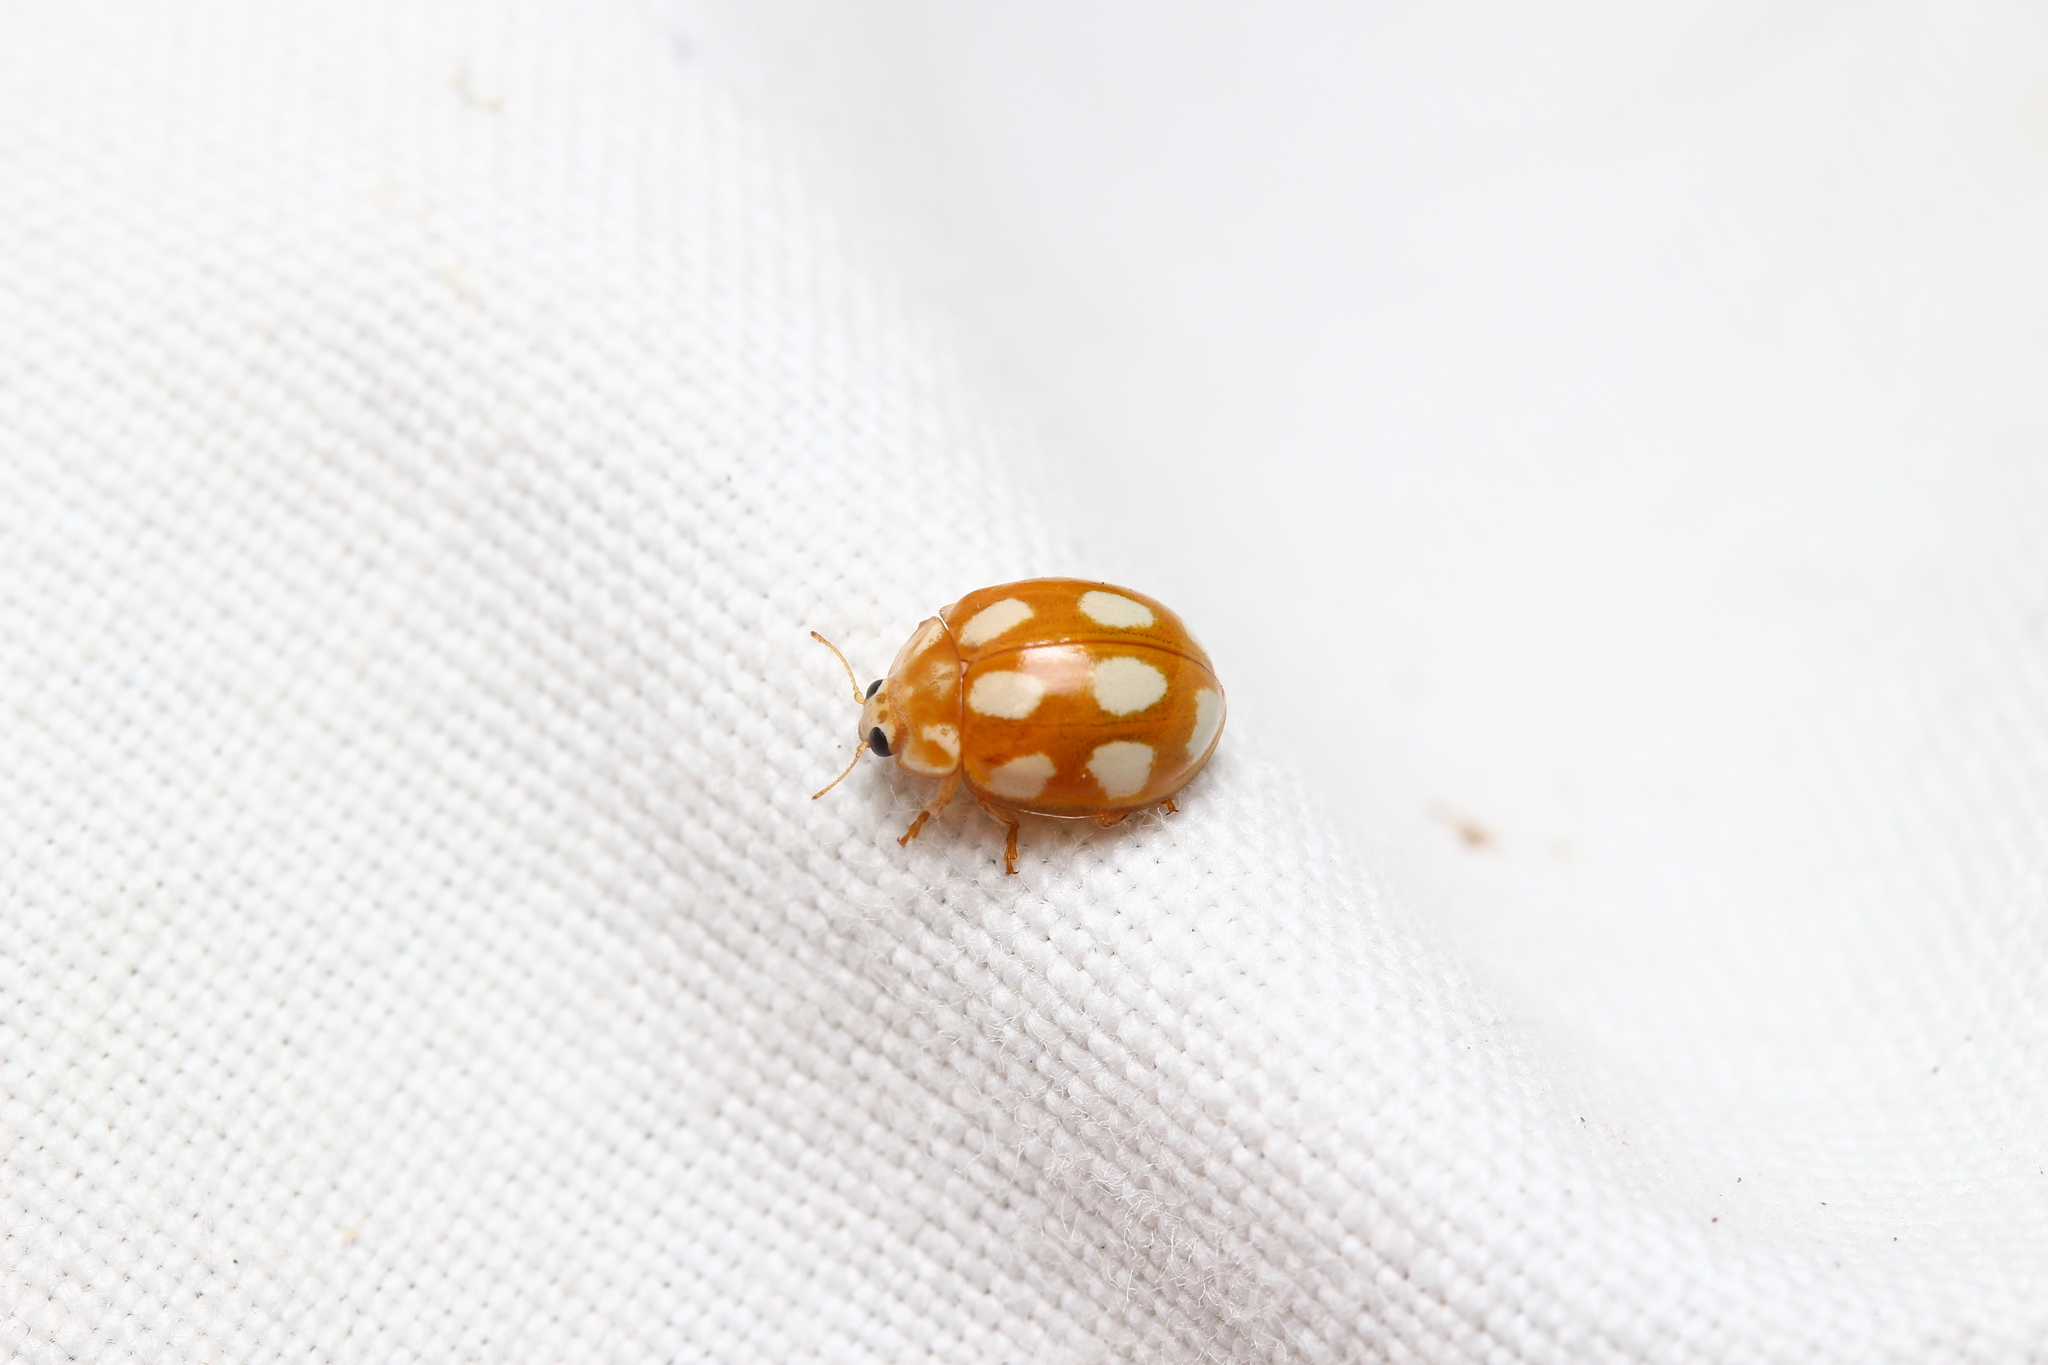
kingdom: Animalia
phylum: Arthropoda
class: Insecta
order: Coleoptera
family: Coccinellidae
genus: Calvia
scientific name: Calvia decemguttata
